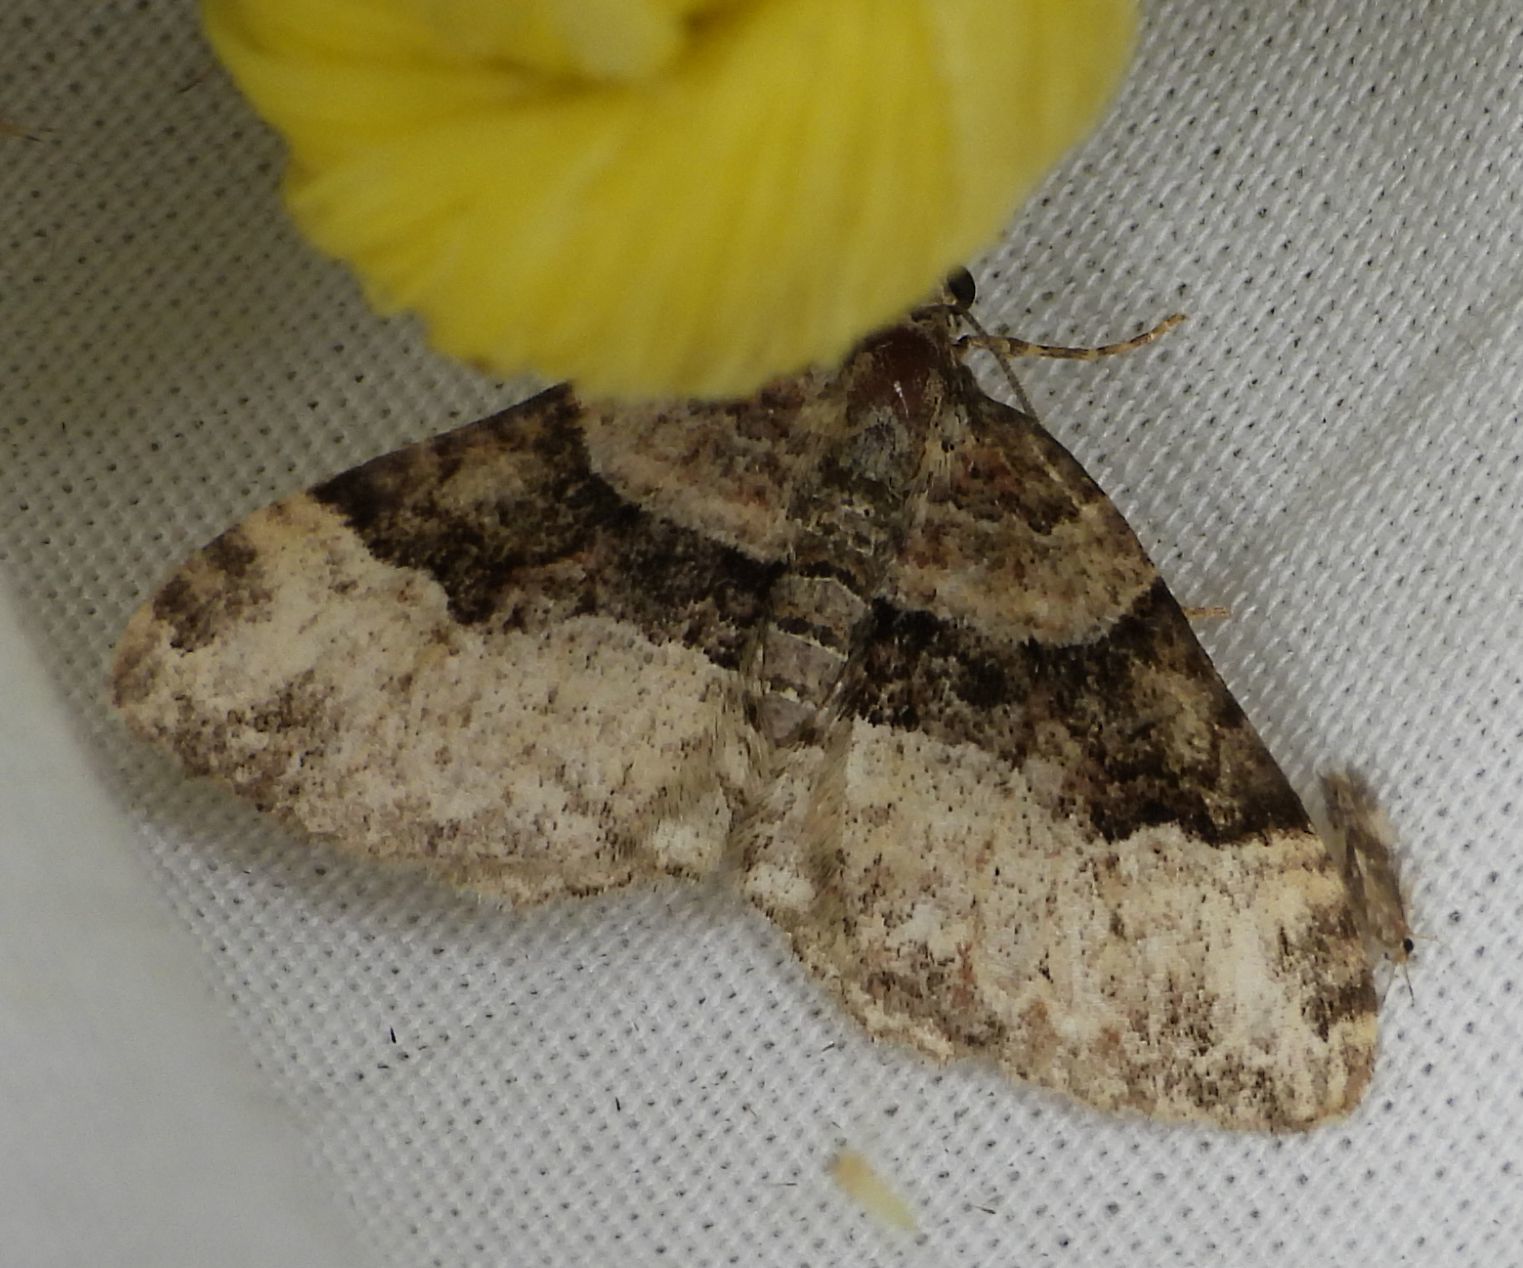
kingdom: Animalia
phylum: Arthropoda
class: Insecta
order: Lepidoptera
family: Geometridae
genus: Xanthorhoe
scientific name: Xanthorhoe lacustrata
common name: Toothed brown carpet
